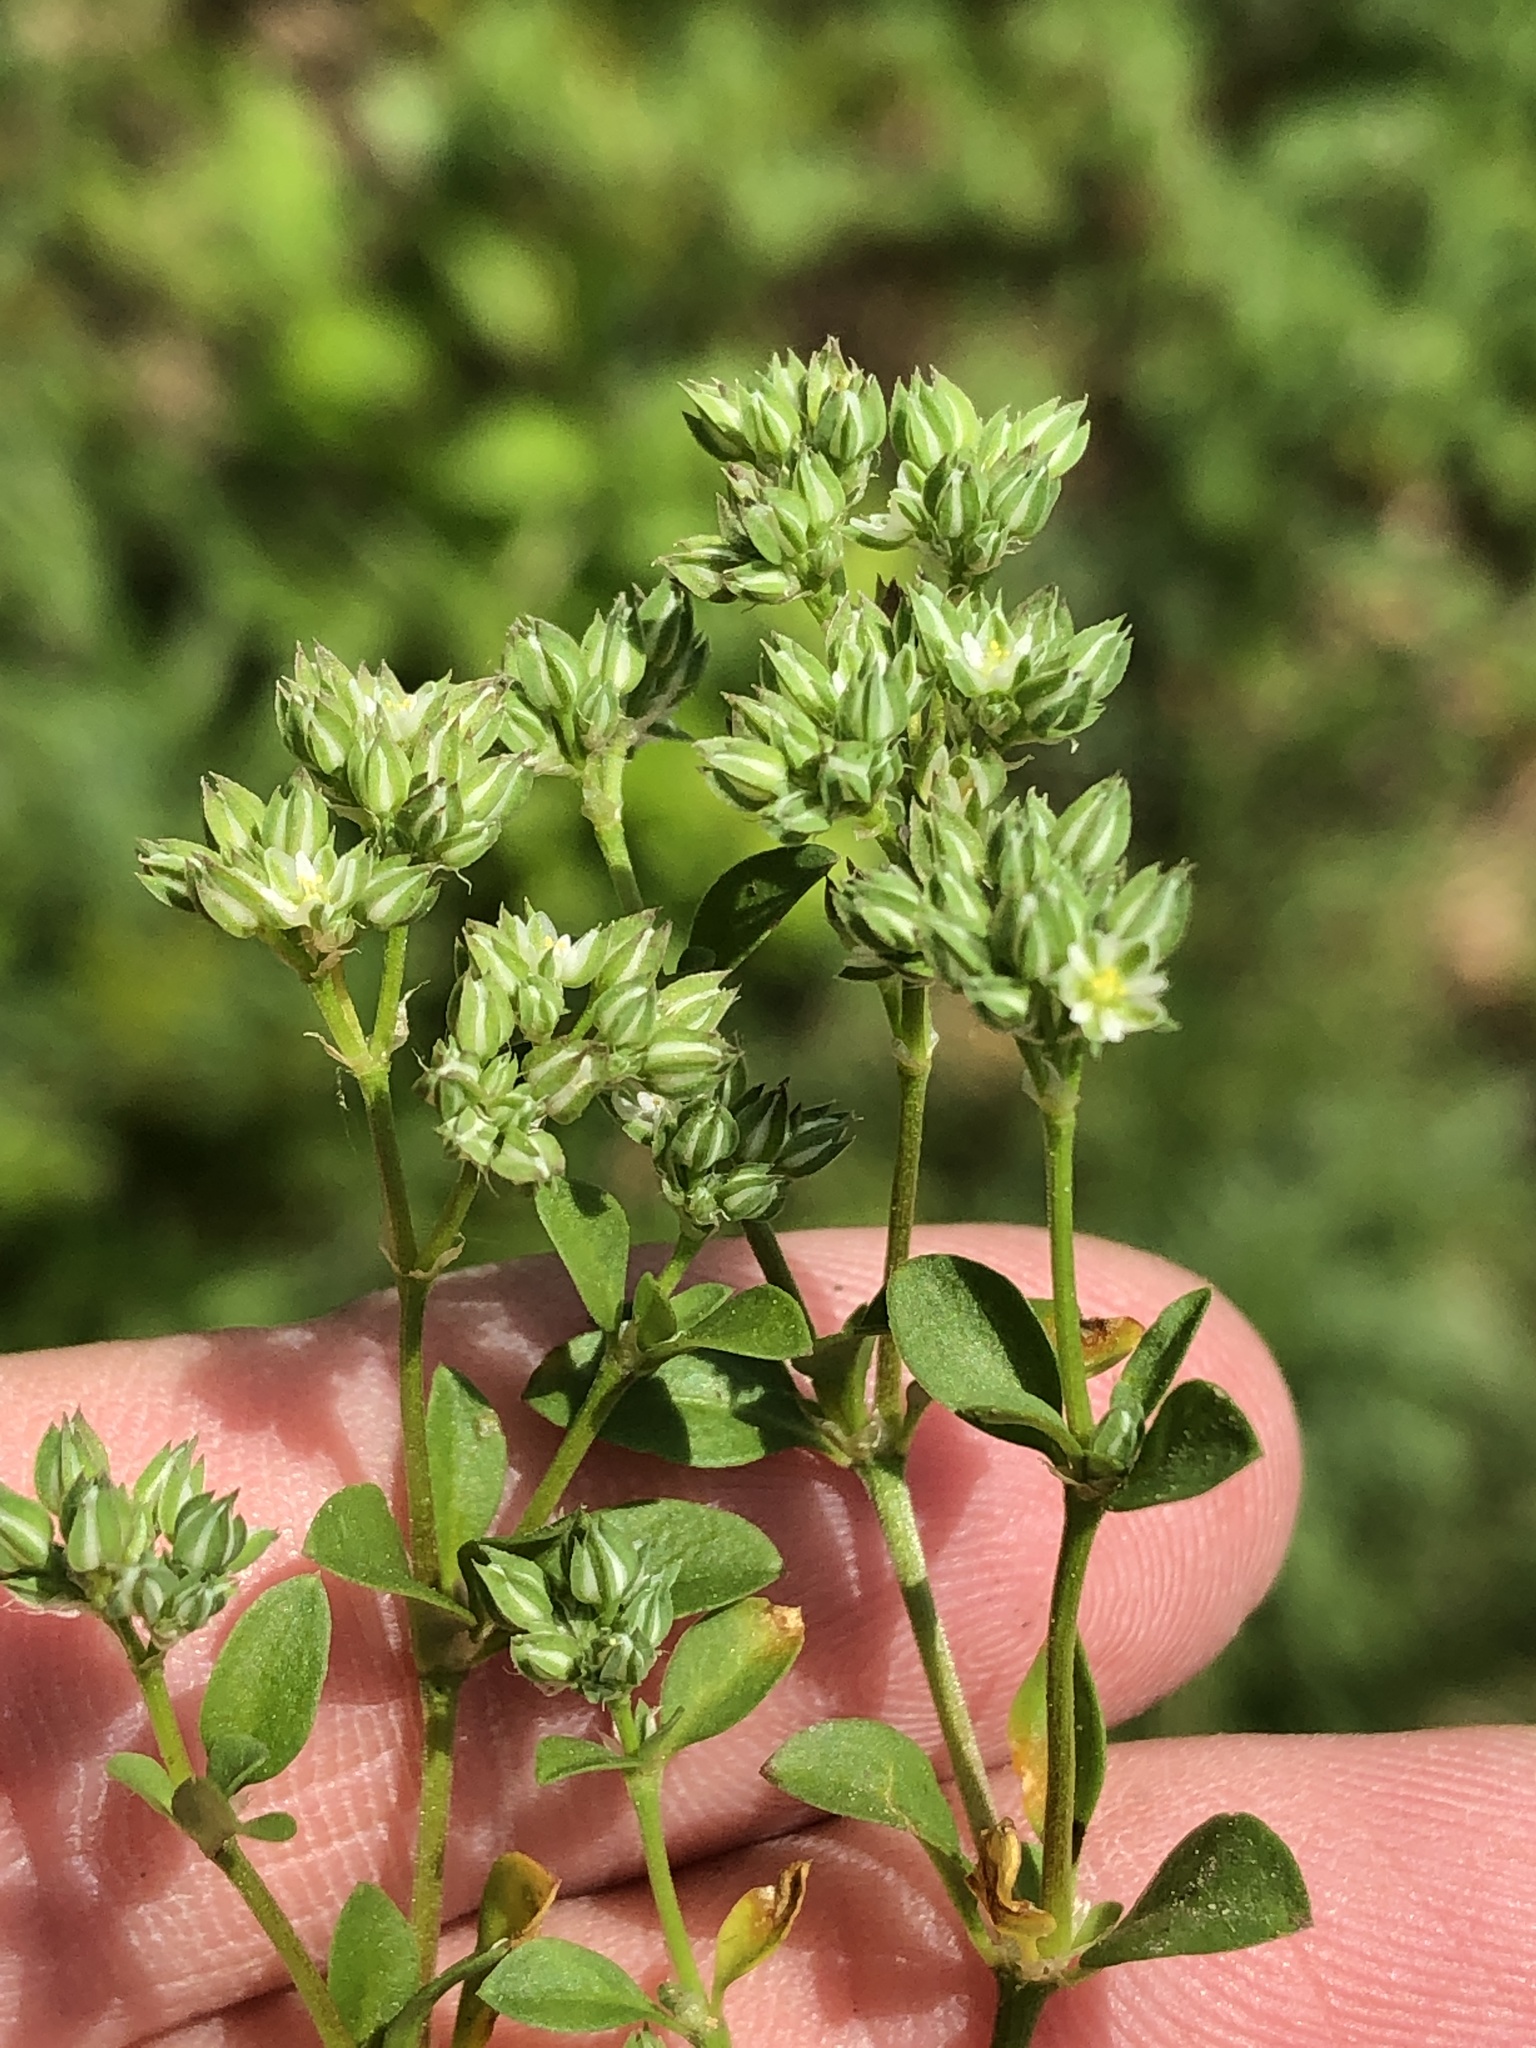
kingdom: Plantae
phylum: Tracheophyta
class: Magnoliopsida
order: Caryophyllales
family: Caryophyllaceae
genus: Polycarpon
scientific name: Polycarpon tetraphyllum
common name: Four-leaved all-seed
